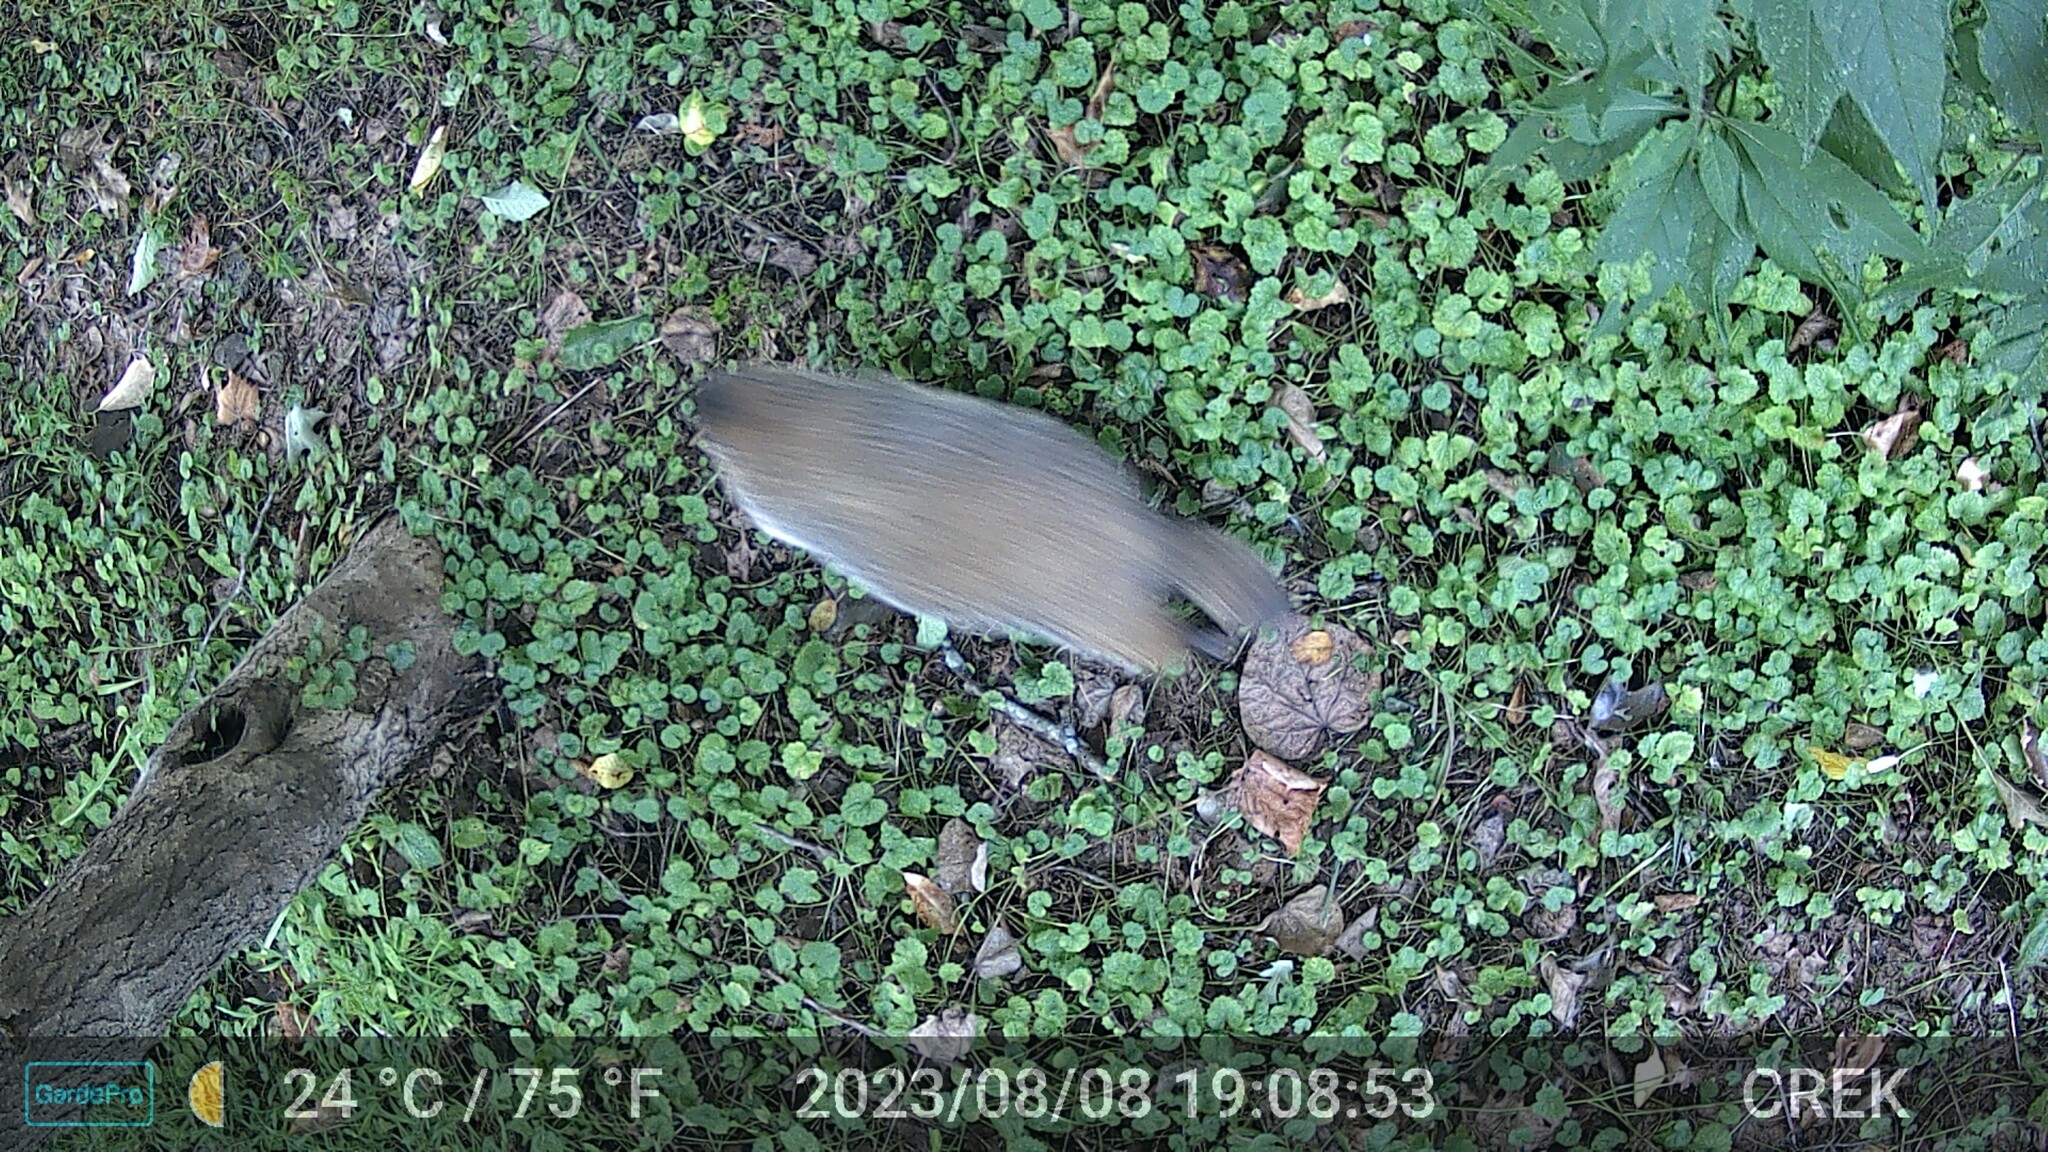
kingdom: Animalia
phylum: Chordata
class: Mammalia
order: Rodentia
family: Sciuridae
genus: Marmota
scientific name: Marmota monax
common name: Groundhog
